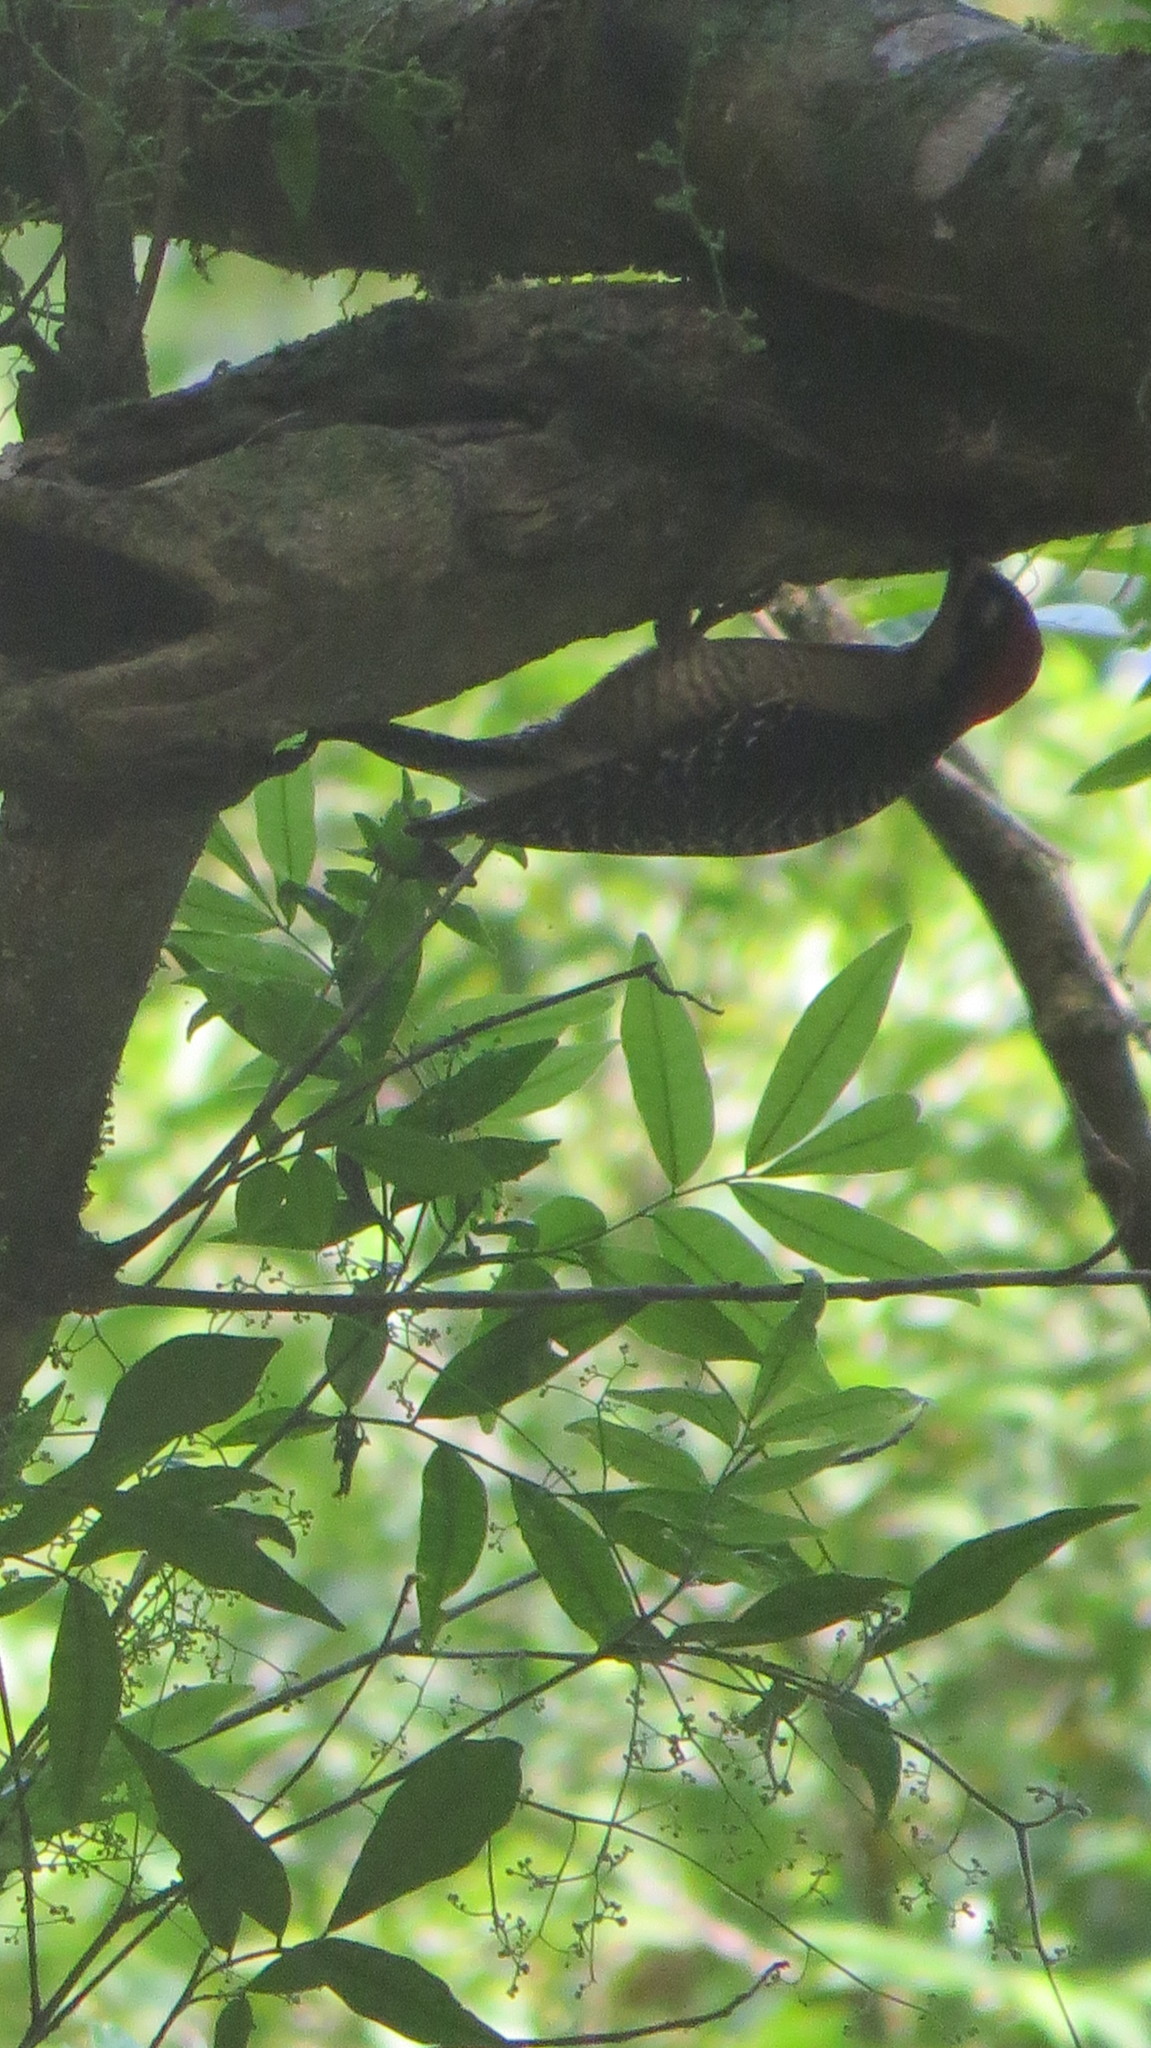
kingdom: Animalia
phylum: Chordata
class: Aves
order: Piciformes
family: Picidae
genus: Melanerpes
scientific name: Melanerpes pucherani
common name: Black-cheeked woodpecker
